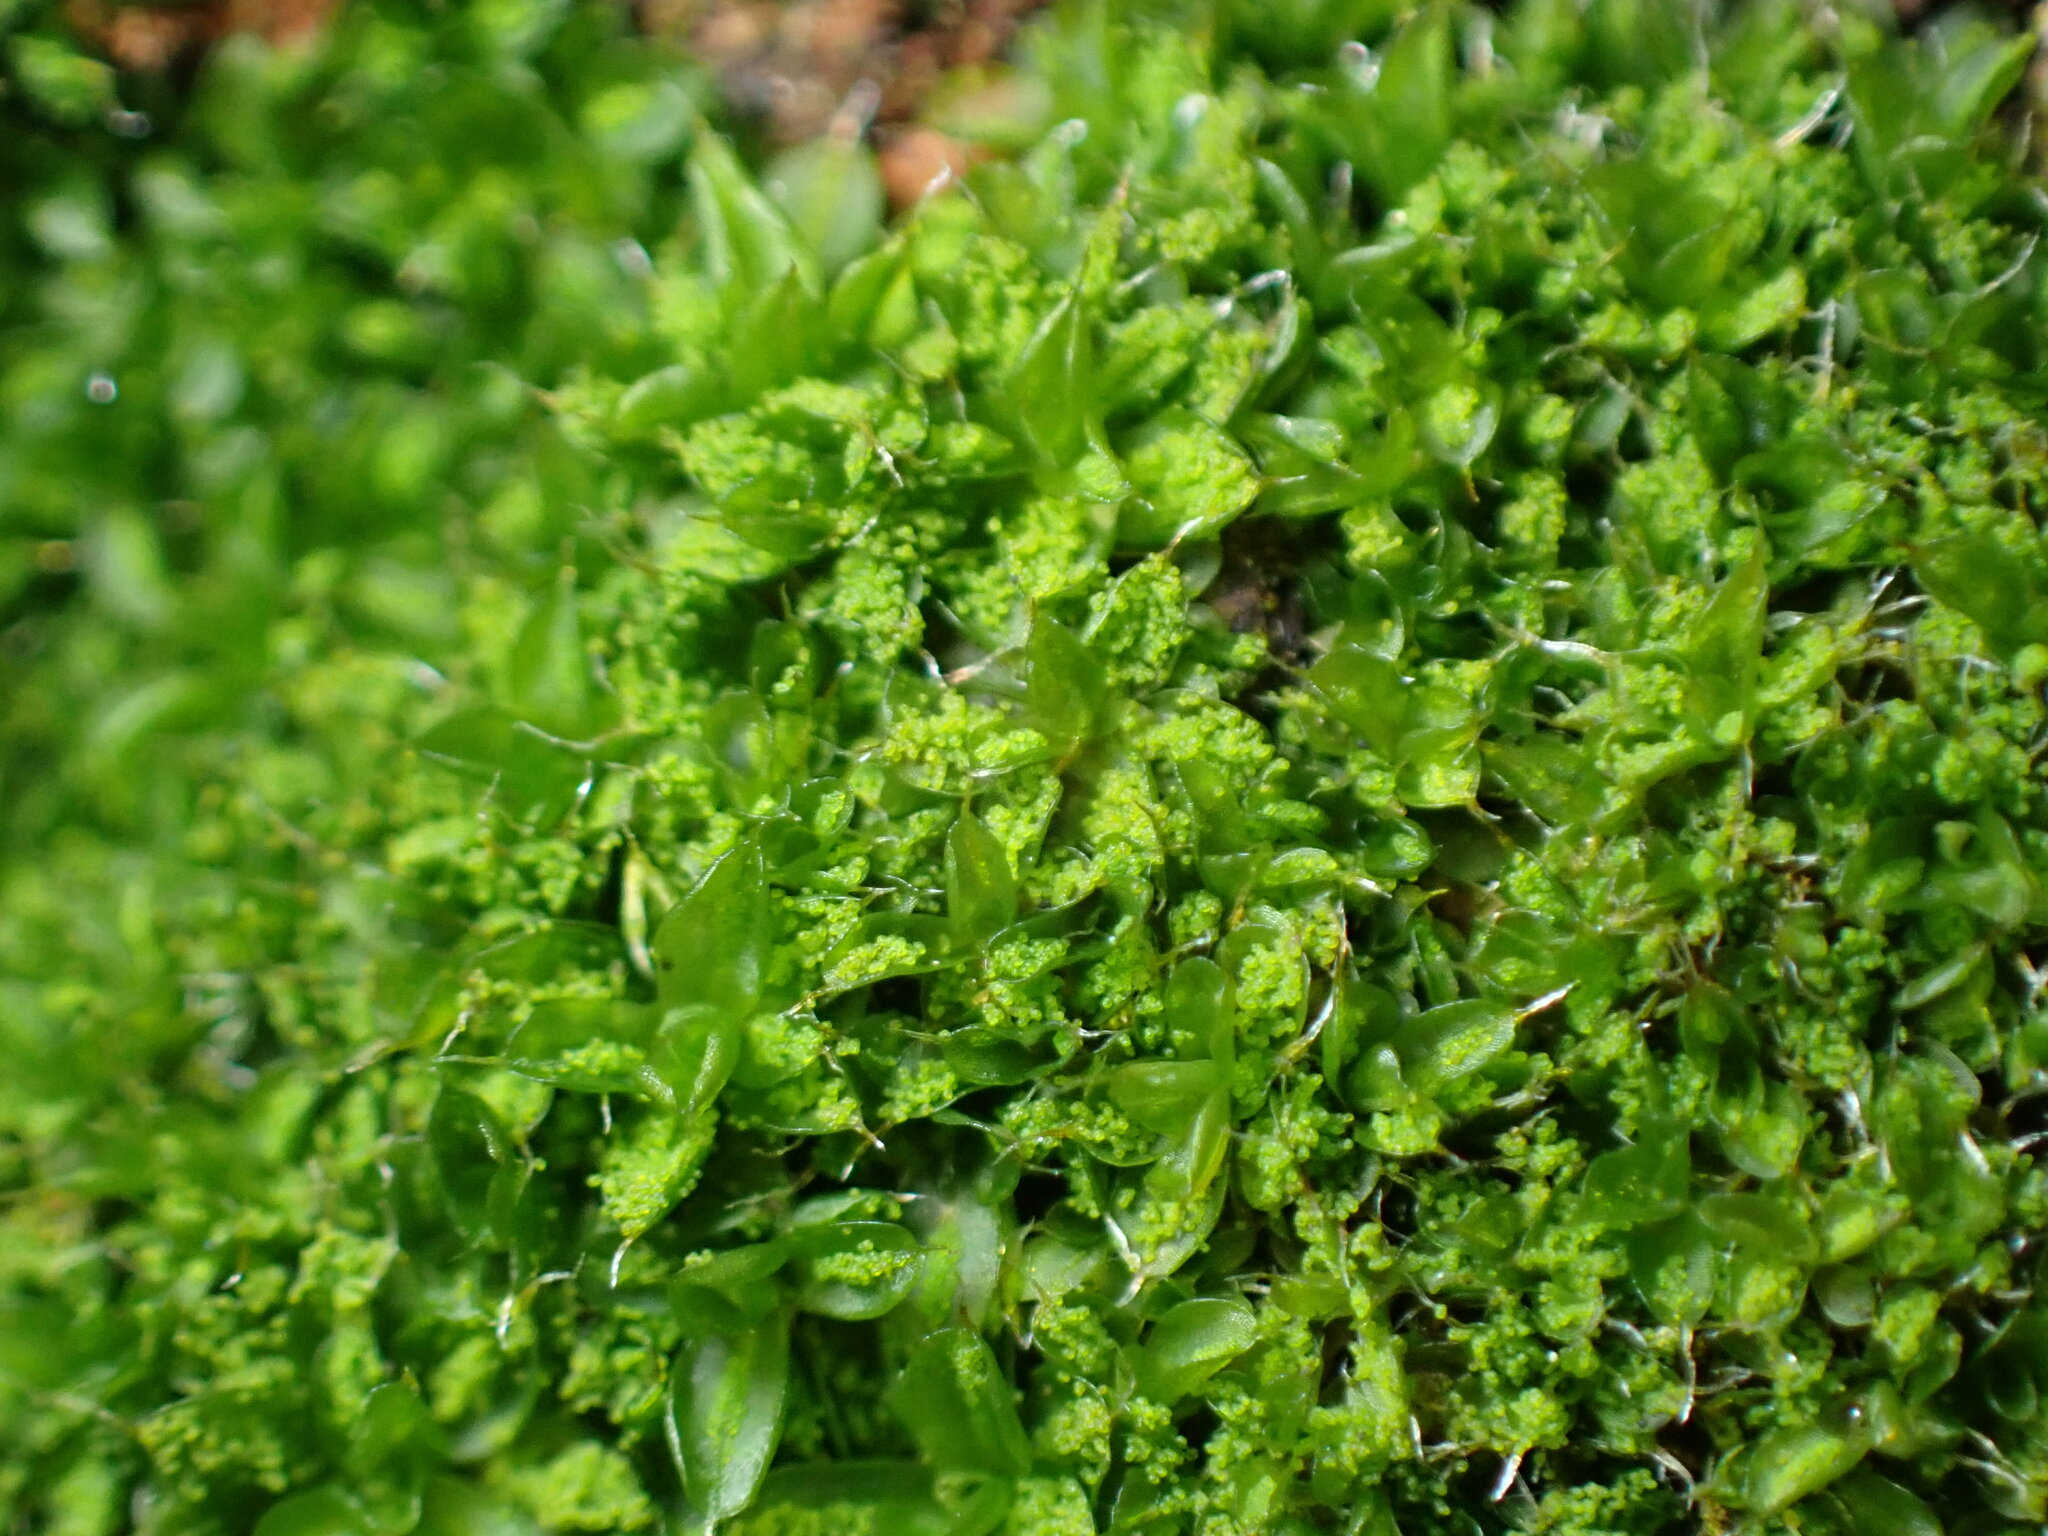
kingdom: Plantae
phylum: Bryophyta
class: Bryopsida
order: Pottiales
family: Pottiaceae
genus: Syntrichia
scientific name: Syntrichia papillosa
